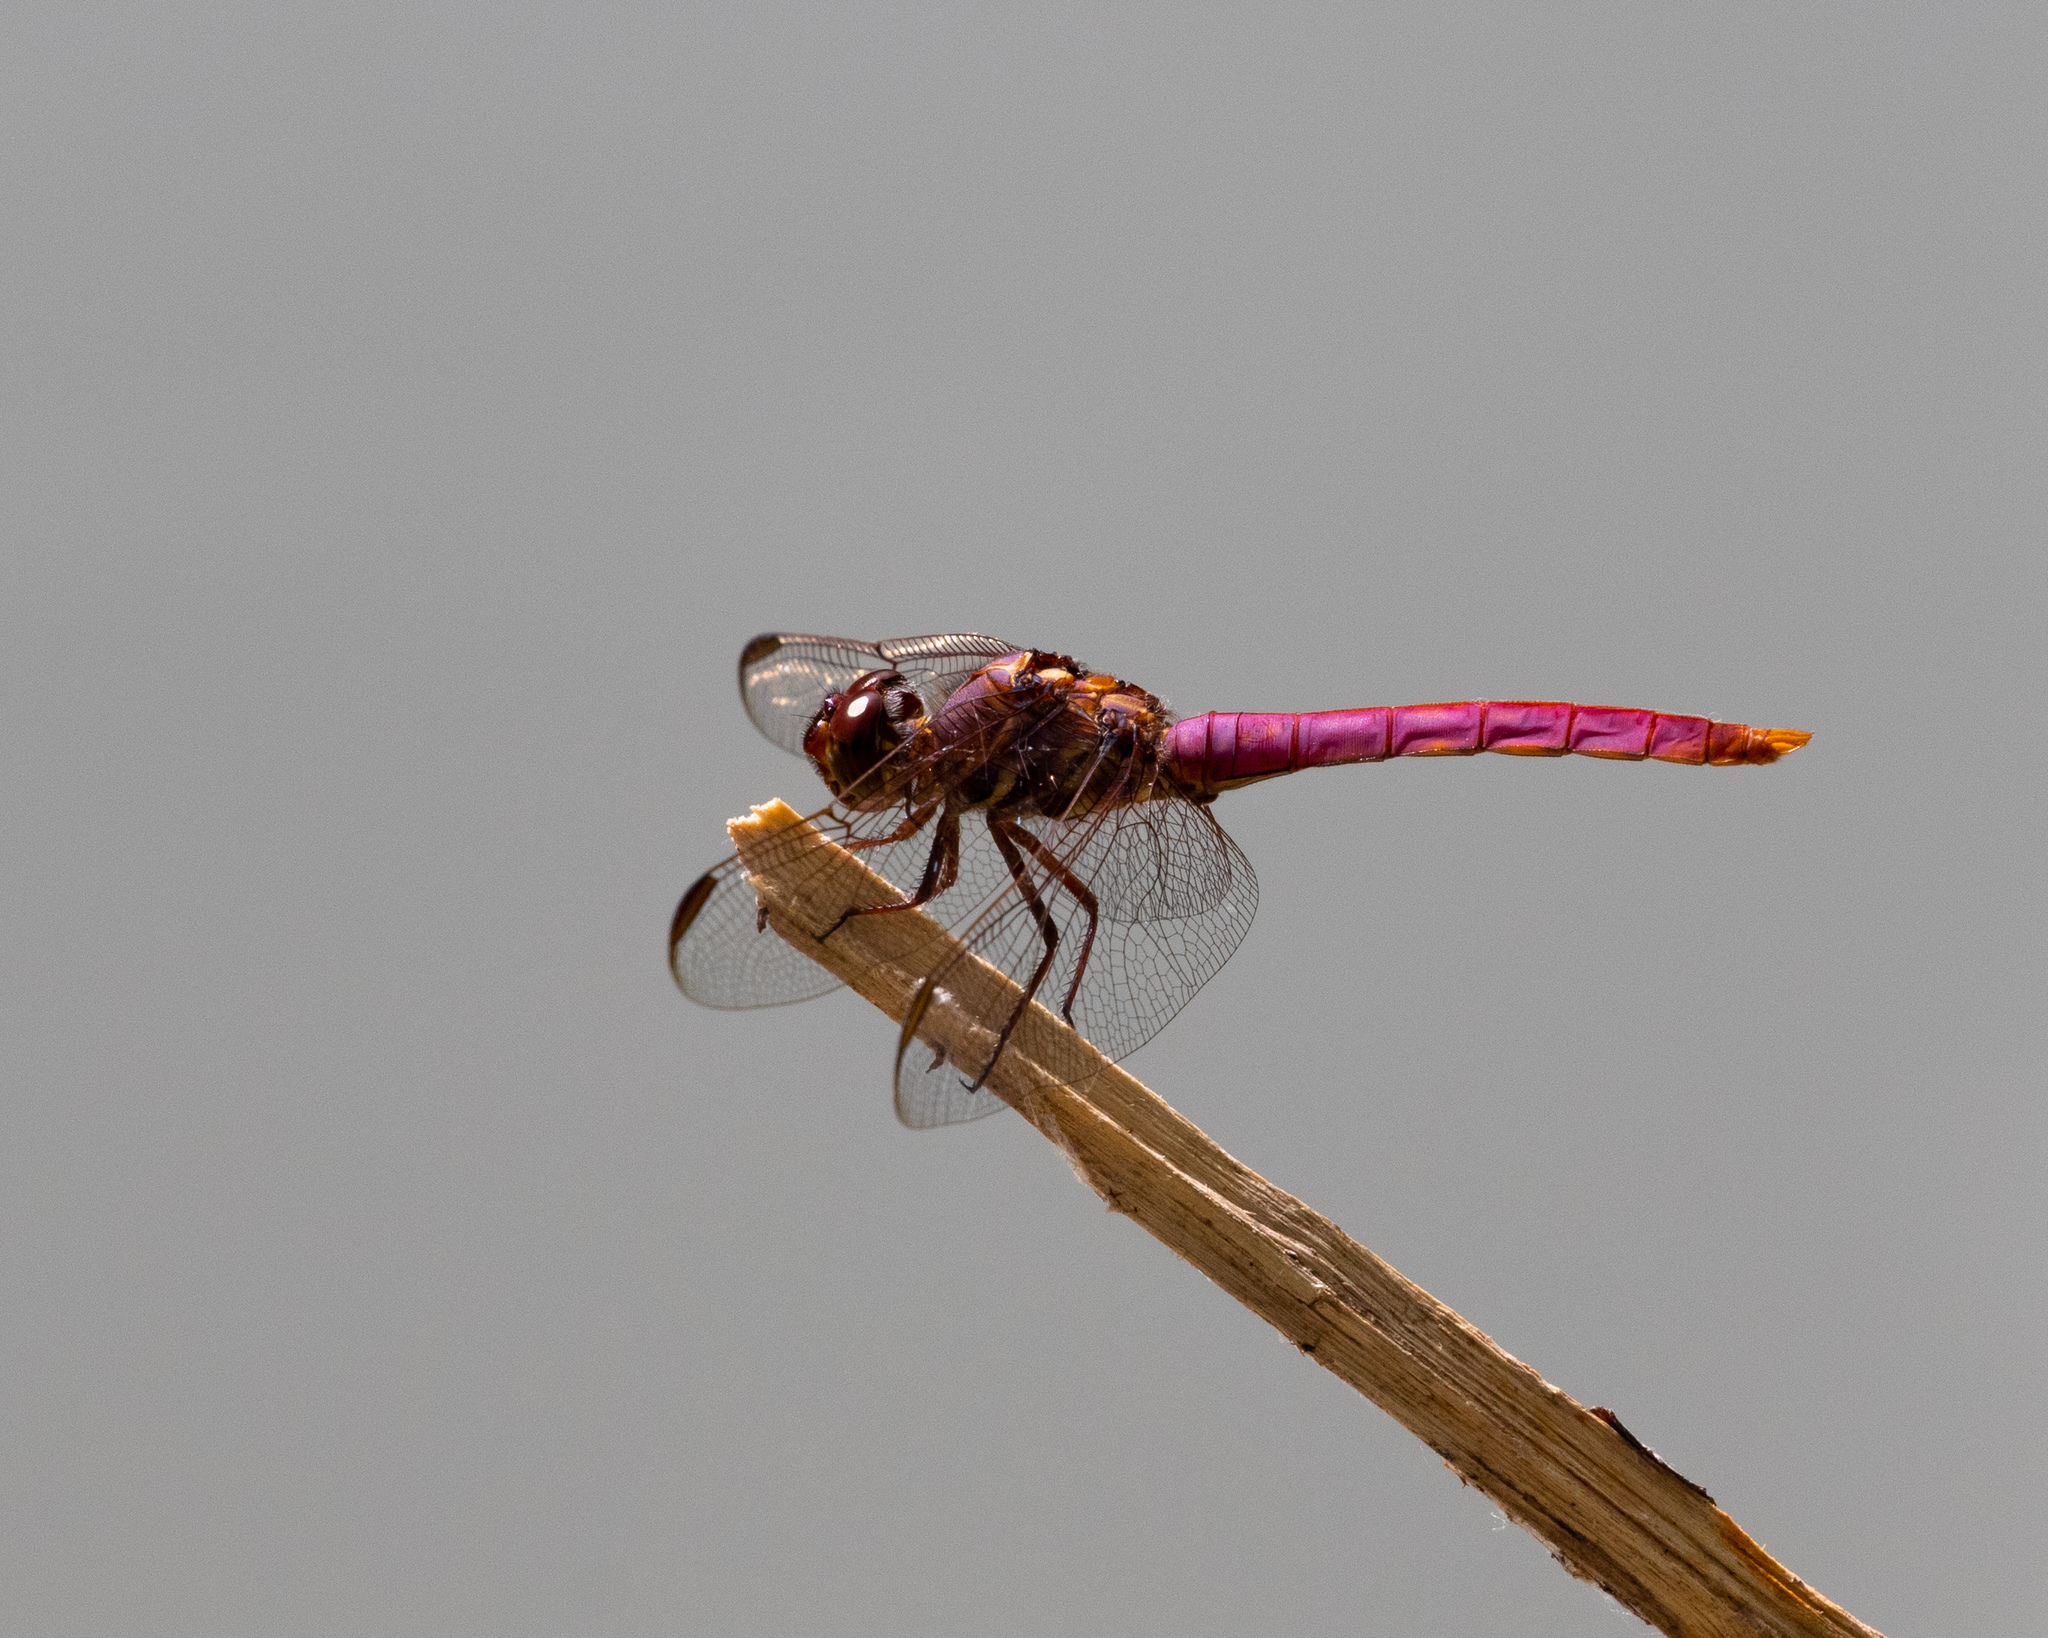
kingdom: Animalia
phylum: Arthropoda
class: Insecta
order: Odonata
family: Libellulidae
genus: Orthemis
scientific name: Orthemis ferruginea
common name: Roseate skimmer
